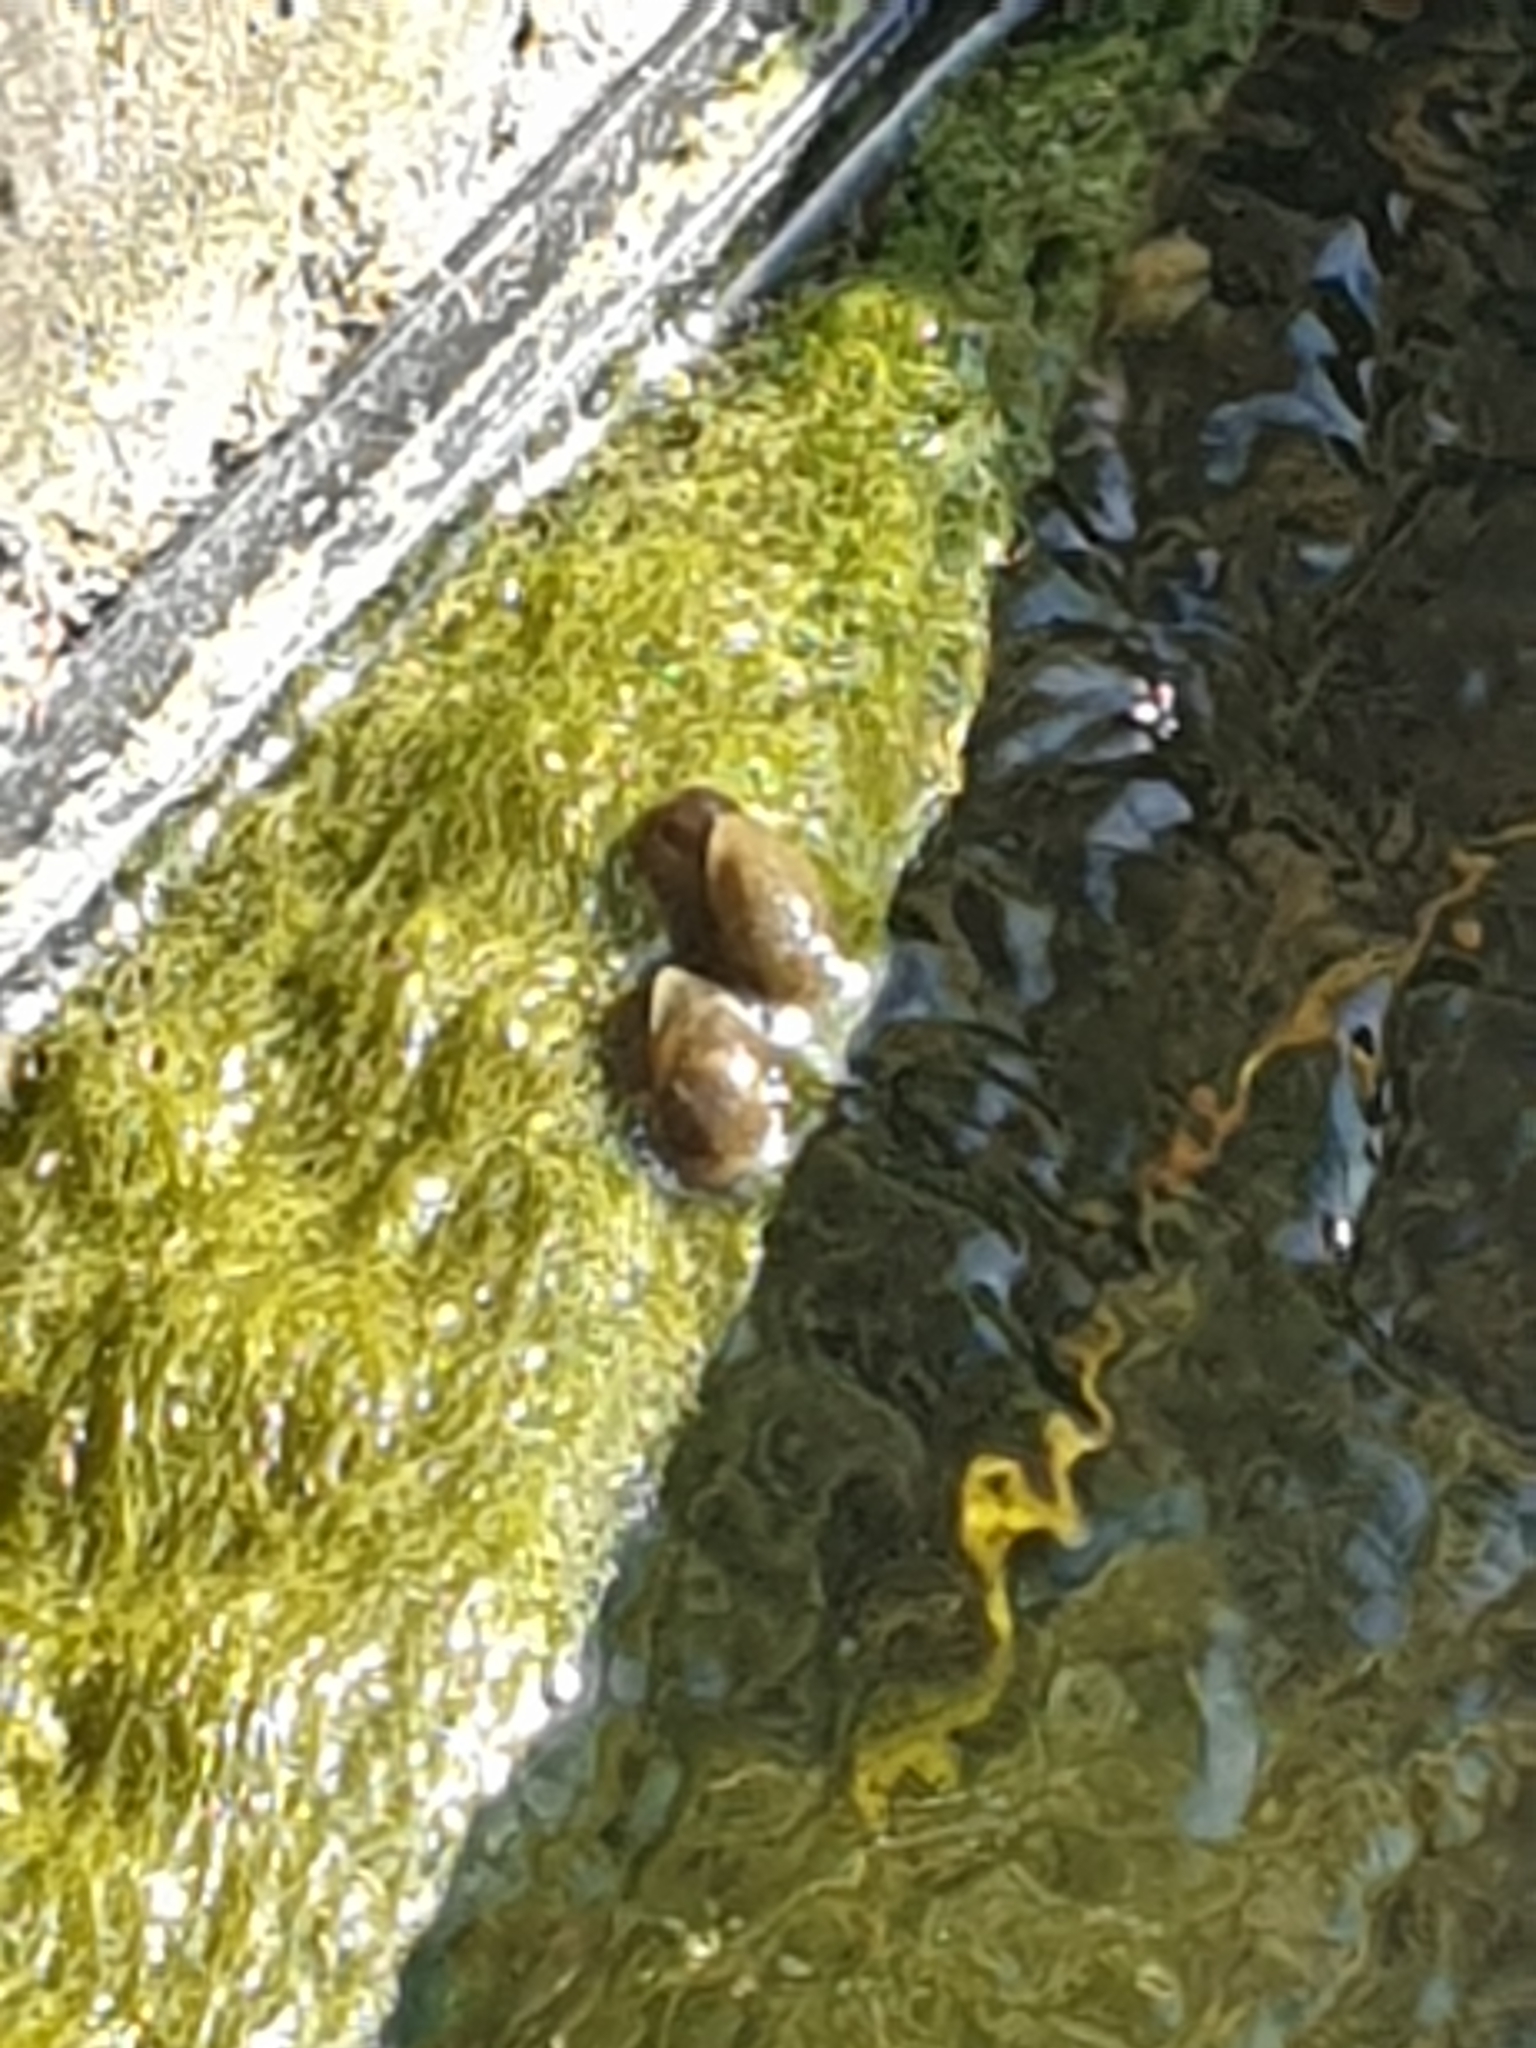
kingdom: Animalia
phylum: Mollusca
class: Gastropoda
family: Lymnaeidae
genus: Lymnaea
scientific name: Lymnaea stagnalis
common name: Great pond snail
